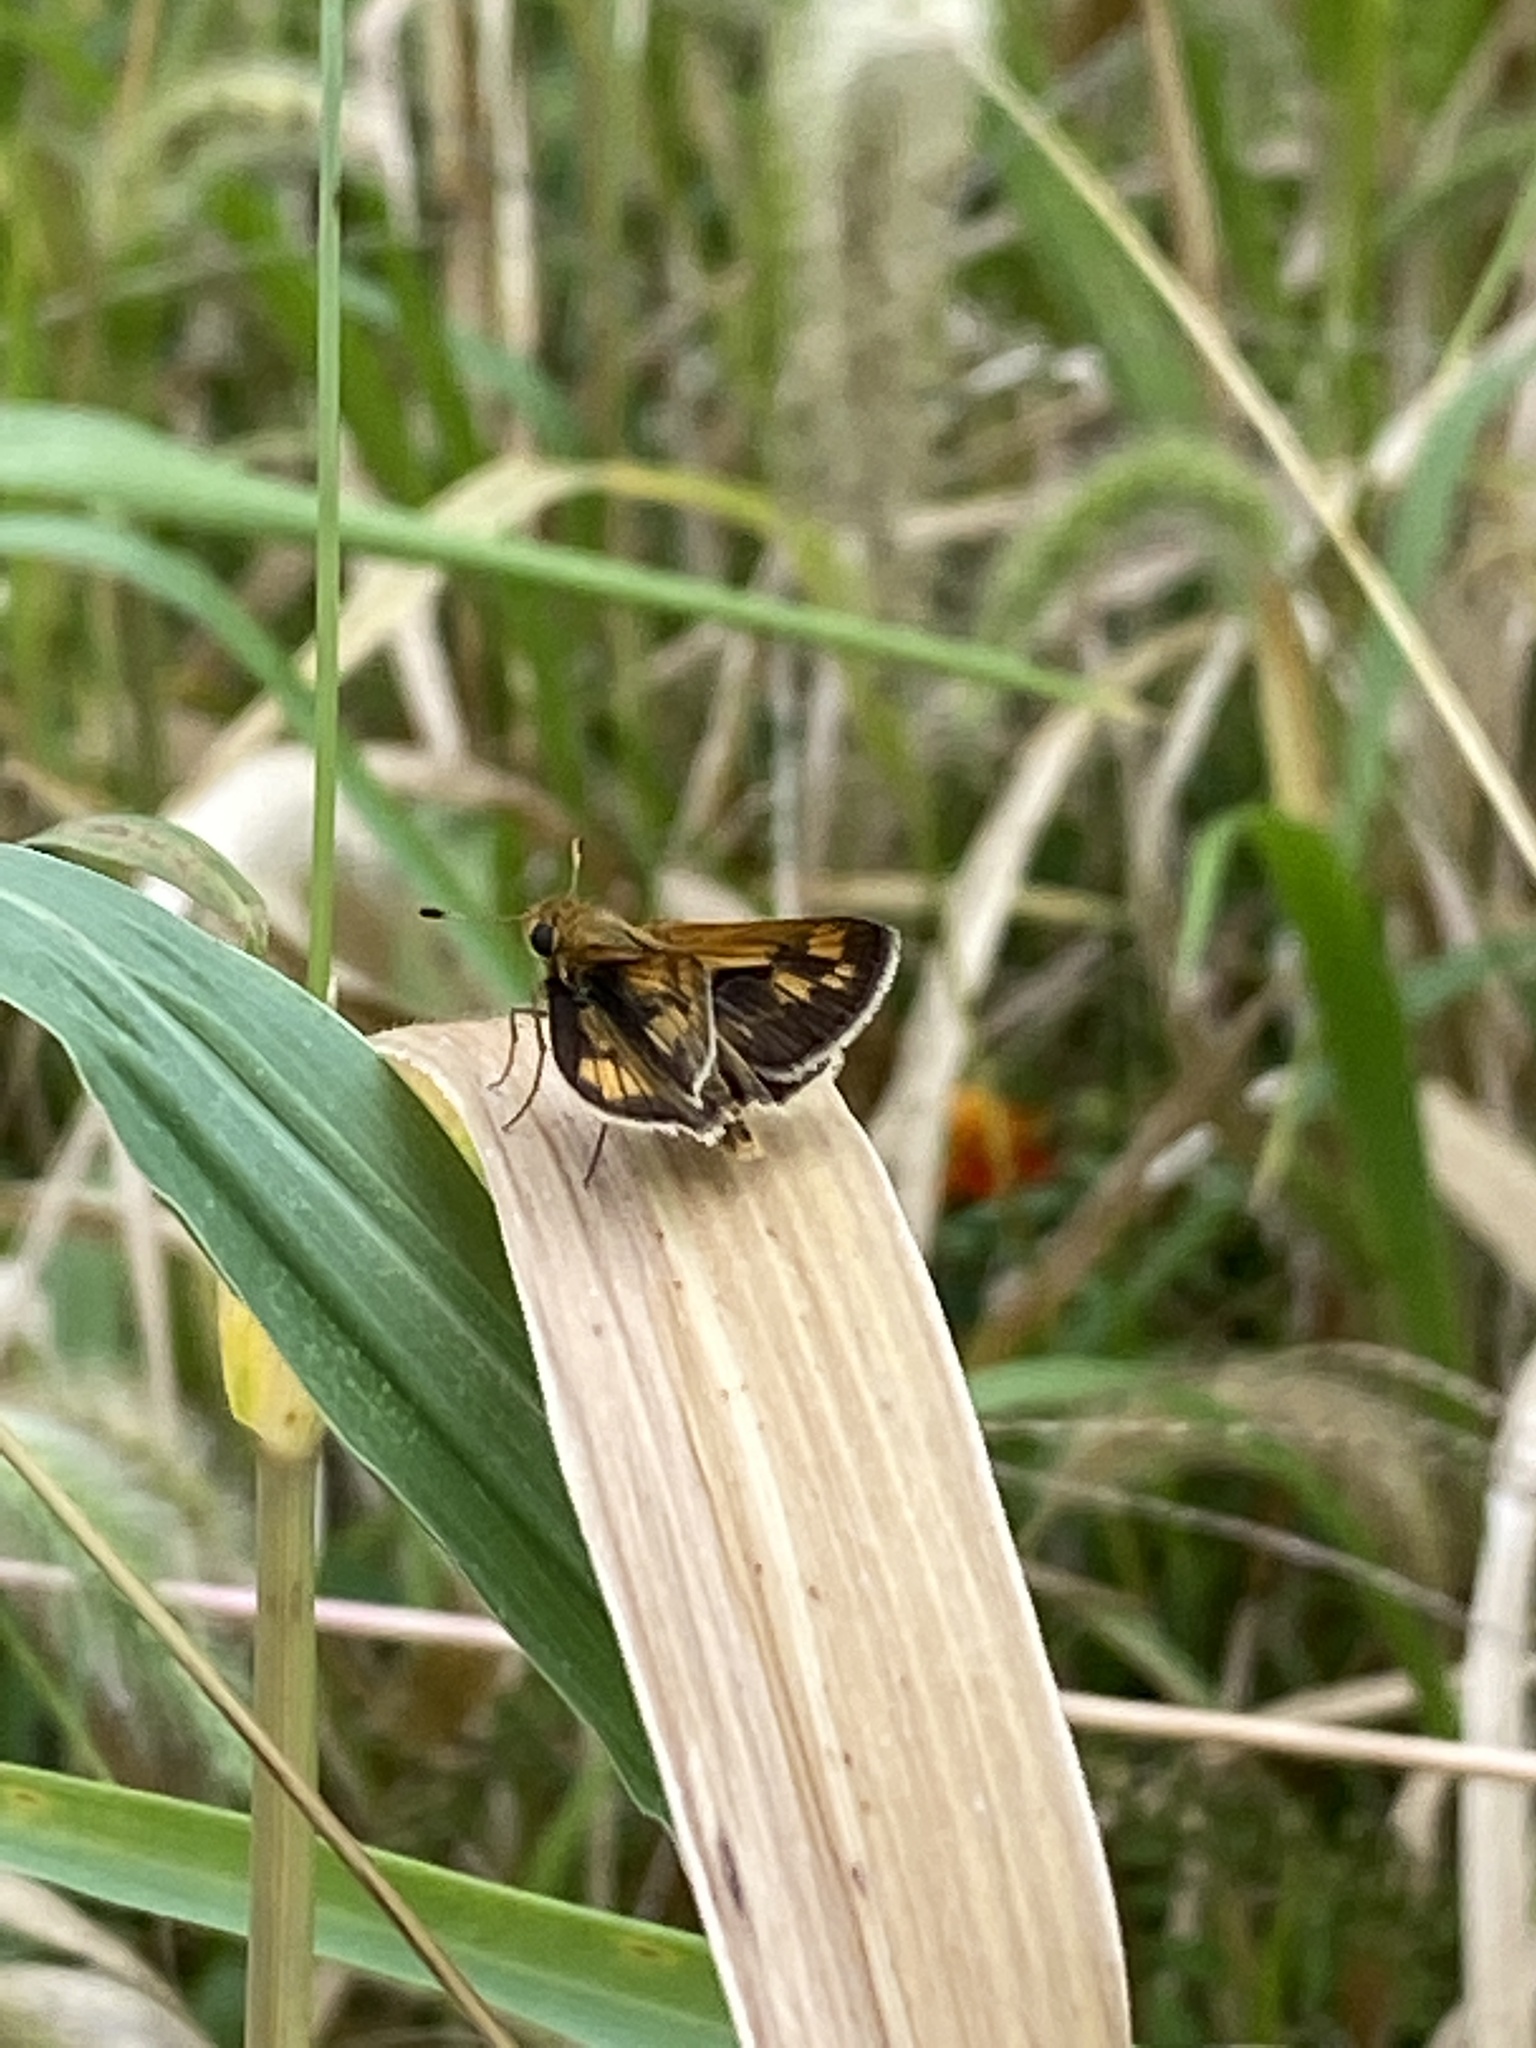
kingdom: Animalia
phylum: Arthropoda
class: Insecta
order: Lepidoptera
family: Hesperiidae
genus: Polites
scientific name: Polites coras
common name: Peck's skipper
